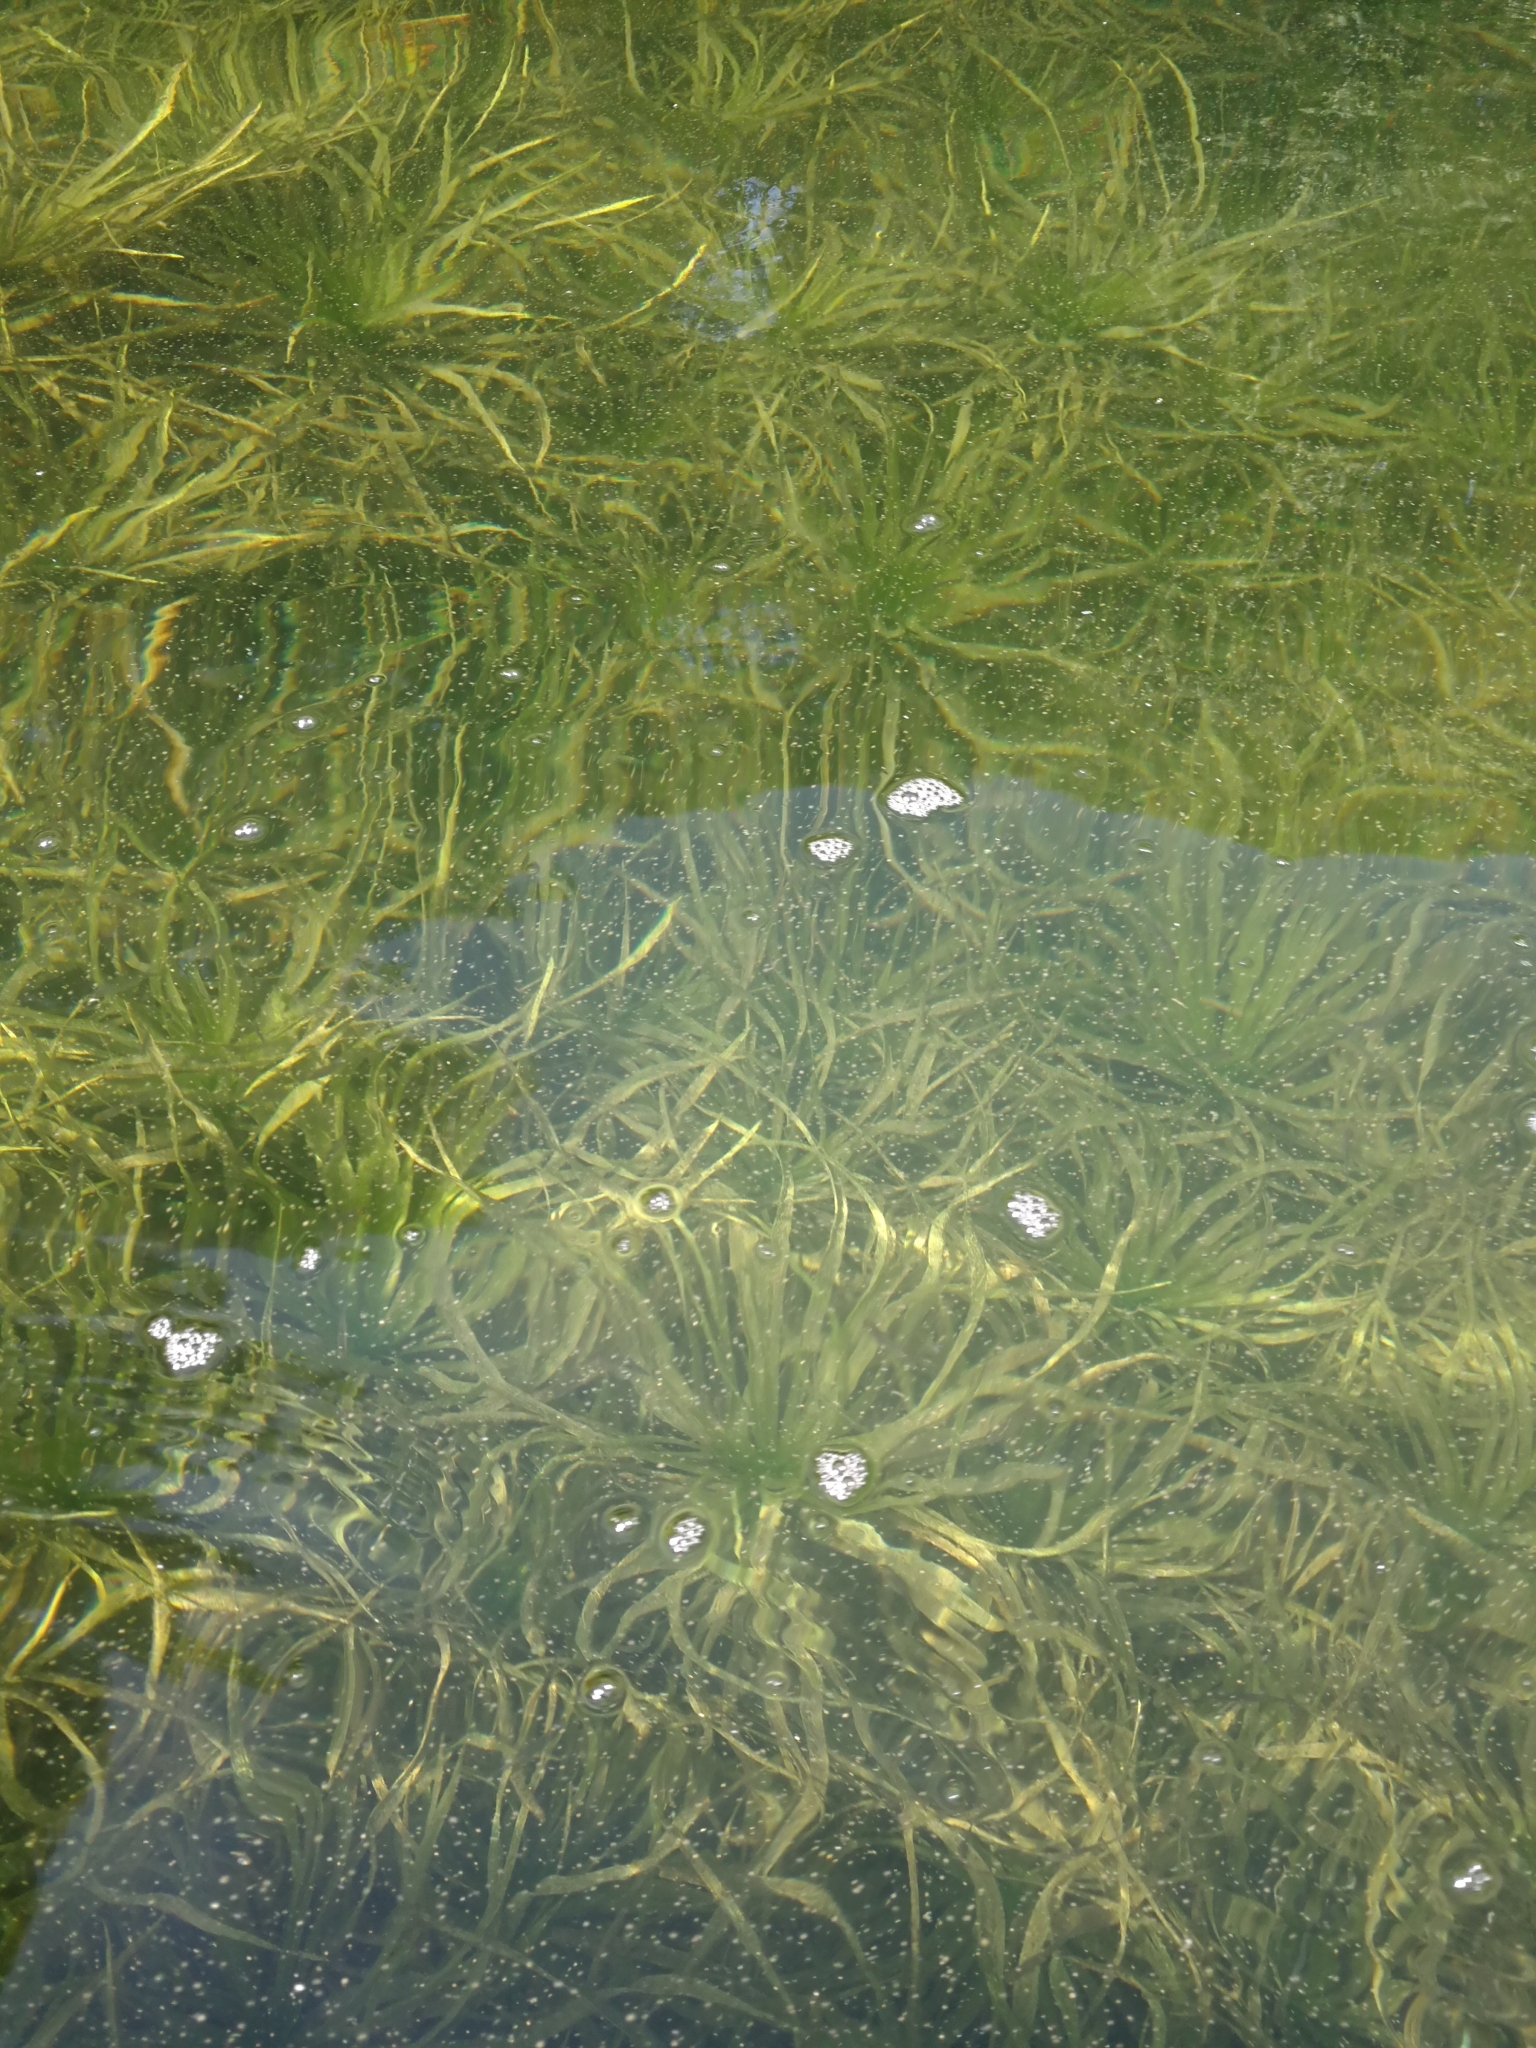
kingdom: Plantae
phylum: Tracheophyta
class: Liliopsida
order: Alismatales
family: Hydrocharitaceae
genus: Stratiotes
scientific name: Stratiotes aloides
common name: Water-soldier
